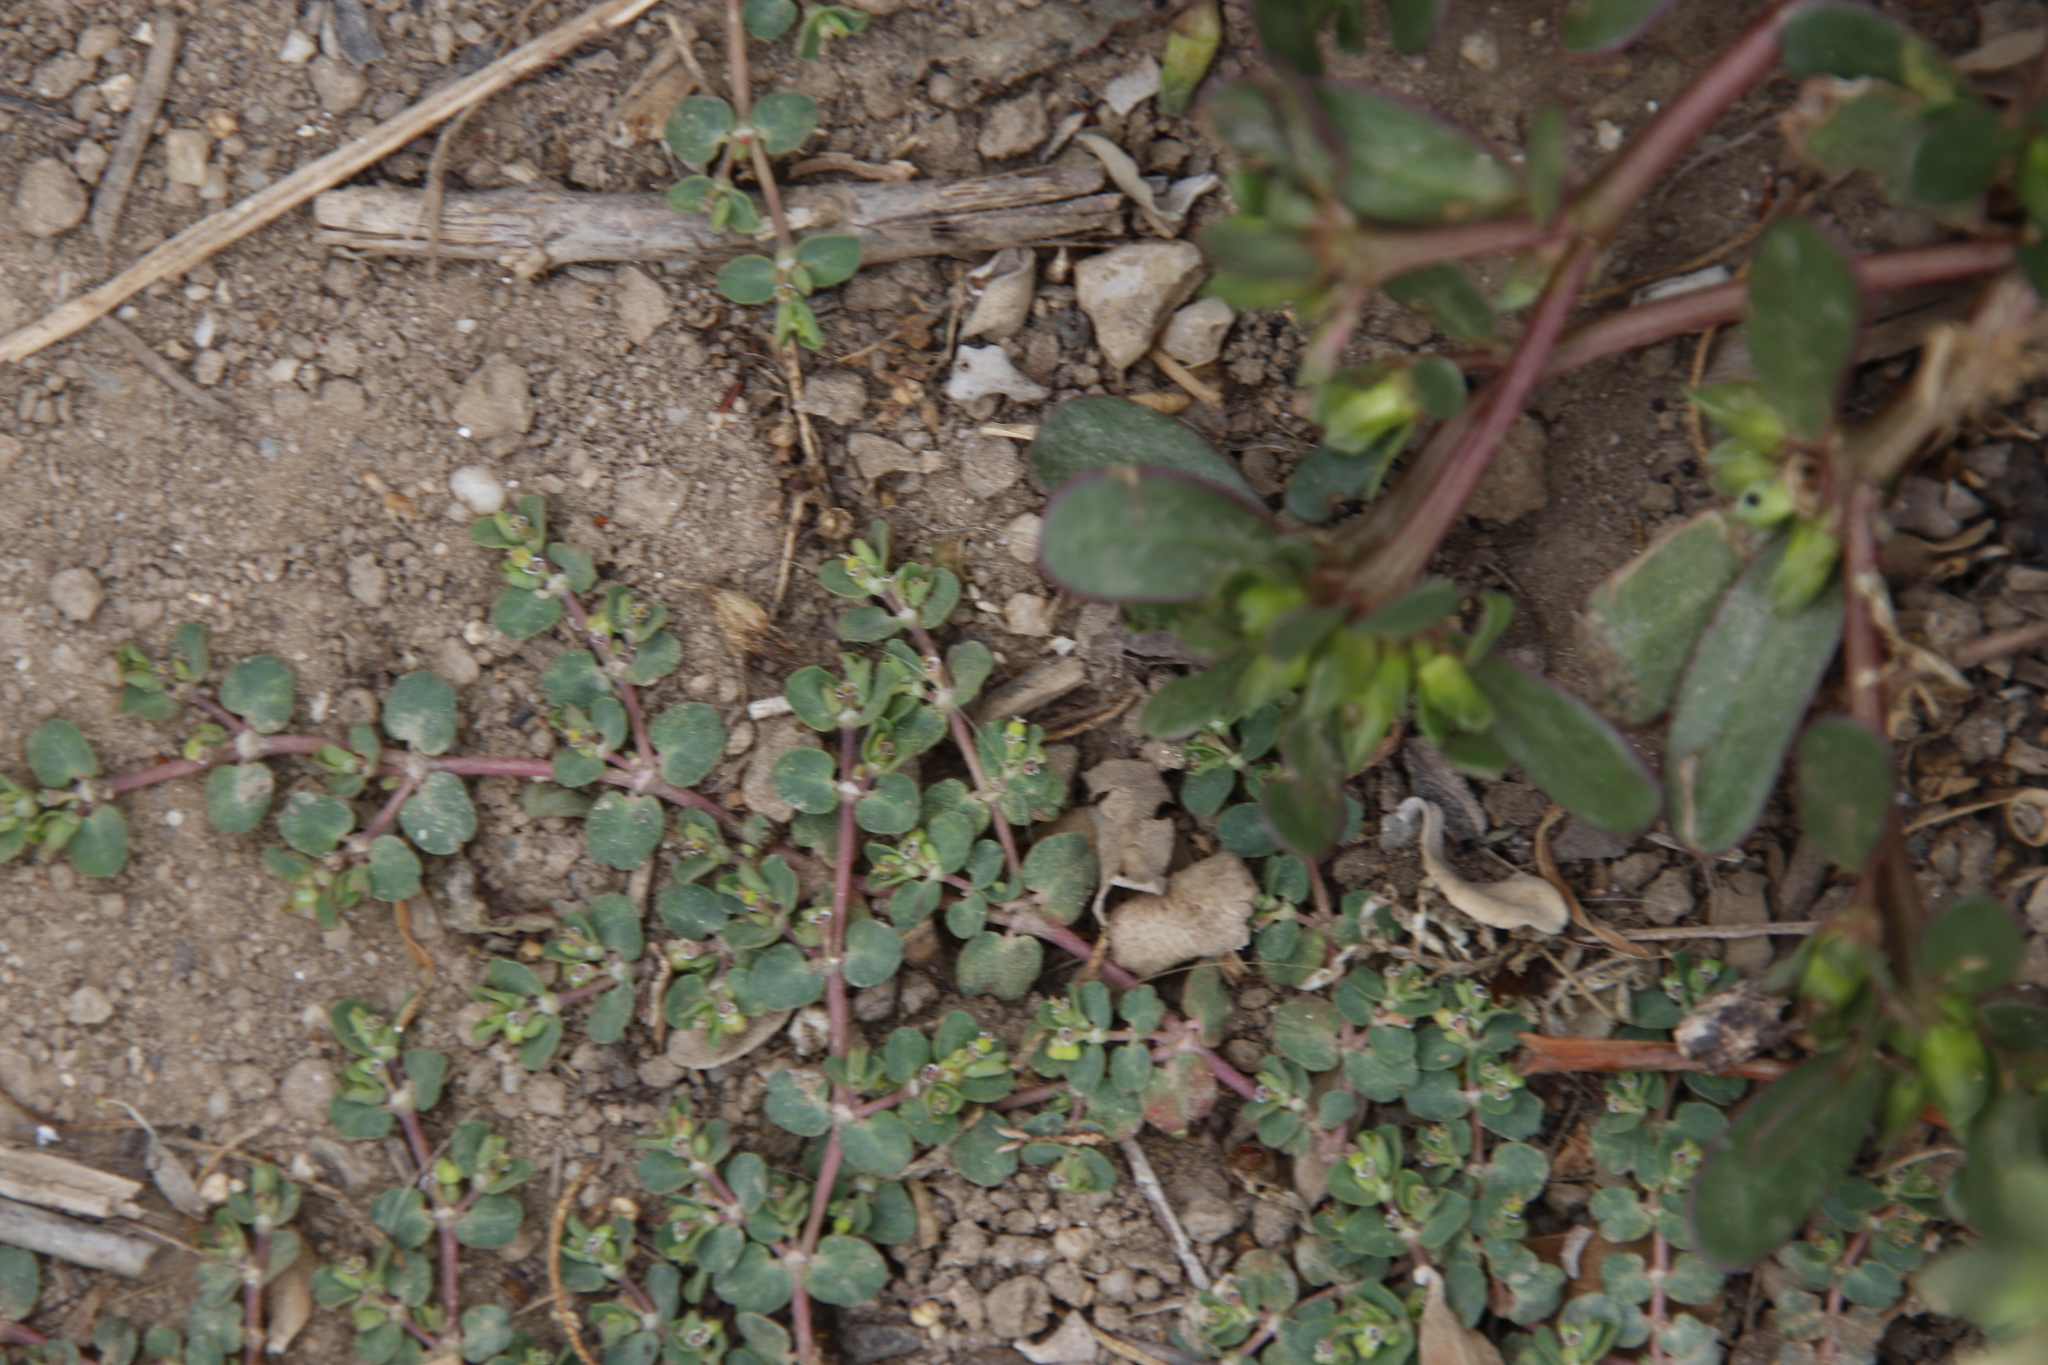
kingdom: Plantae
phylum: Tracheophyta
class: Magnoliopsida
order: Malpighiales
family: Euphorbiaceae
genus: Euphorbia
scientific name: Euphorbia serpens
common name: Matted sandmat
